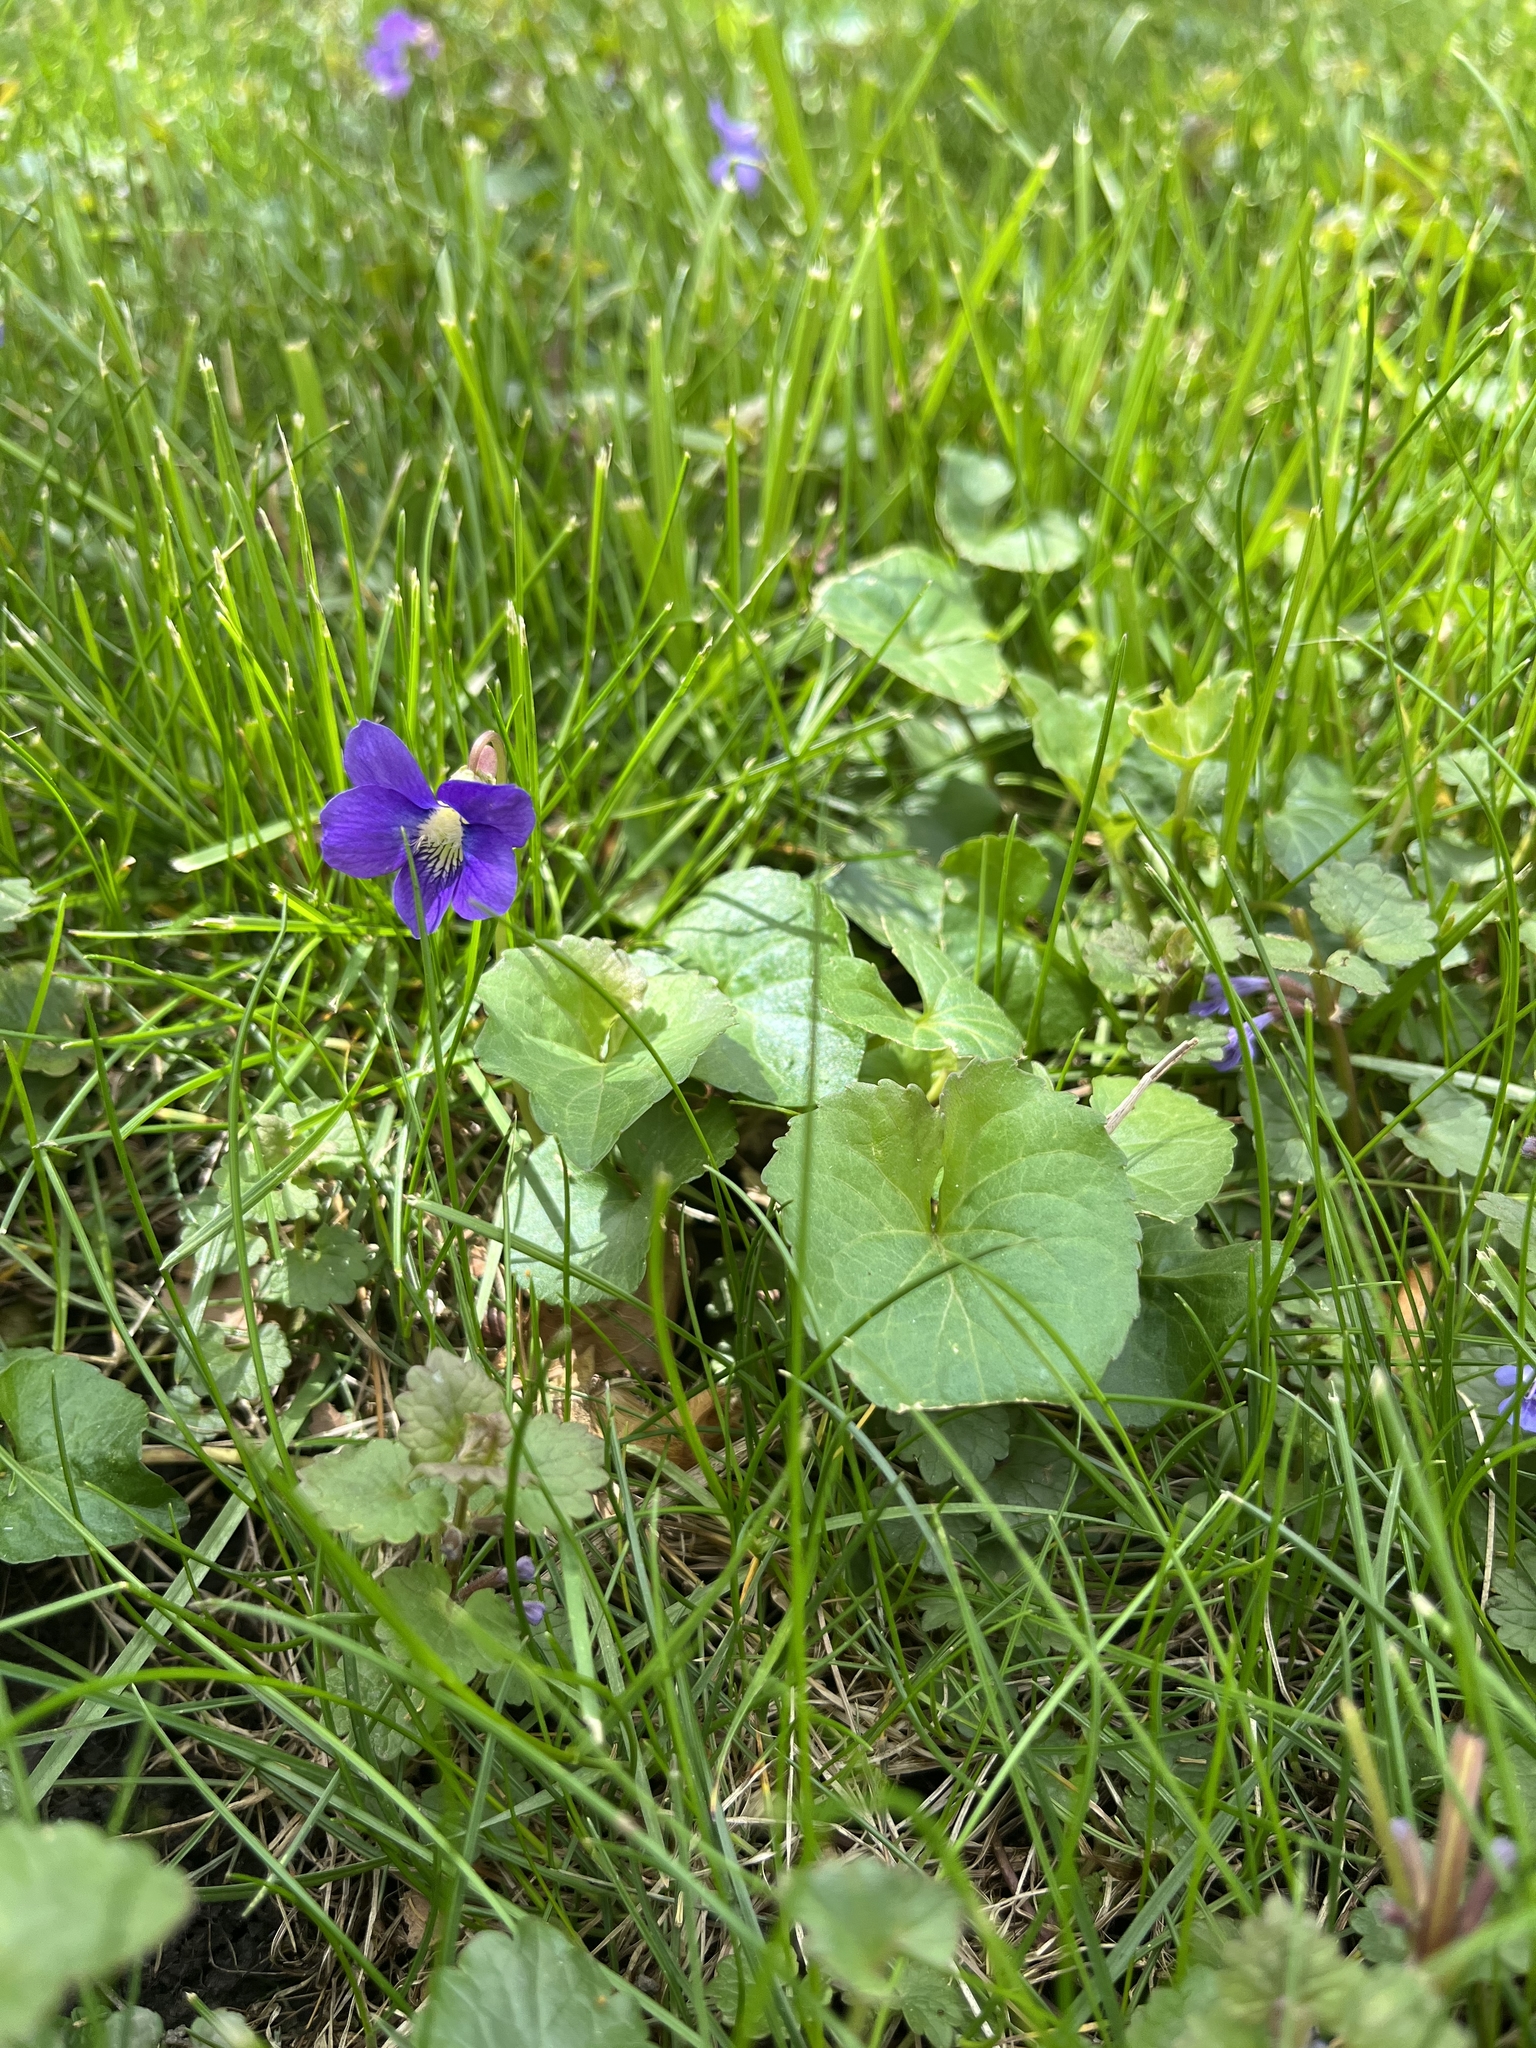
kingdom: Plantae
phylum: Tracheophyta
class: Magnoliopsida
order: Malpighiales
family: Violaceae
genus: Viola
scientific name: Viola sororia
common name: Dooryard violet
